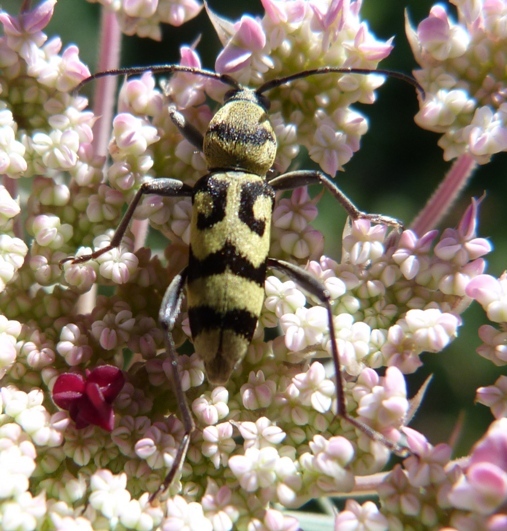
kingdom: Animalia
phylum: Arthropoda
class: Insecta
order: Coleoptera
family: Cerambycidae
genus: Chlorophorus
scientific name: Chlorophorus varius
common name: Grape wood borer
